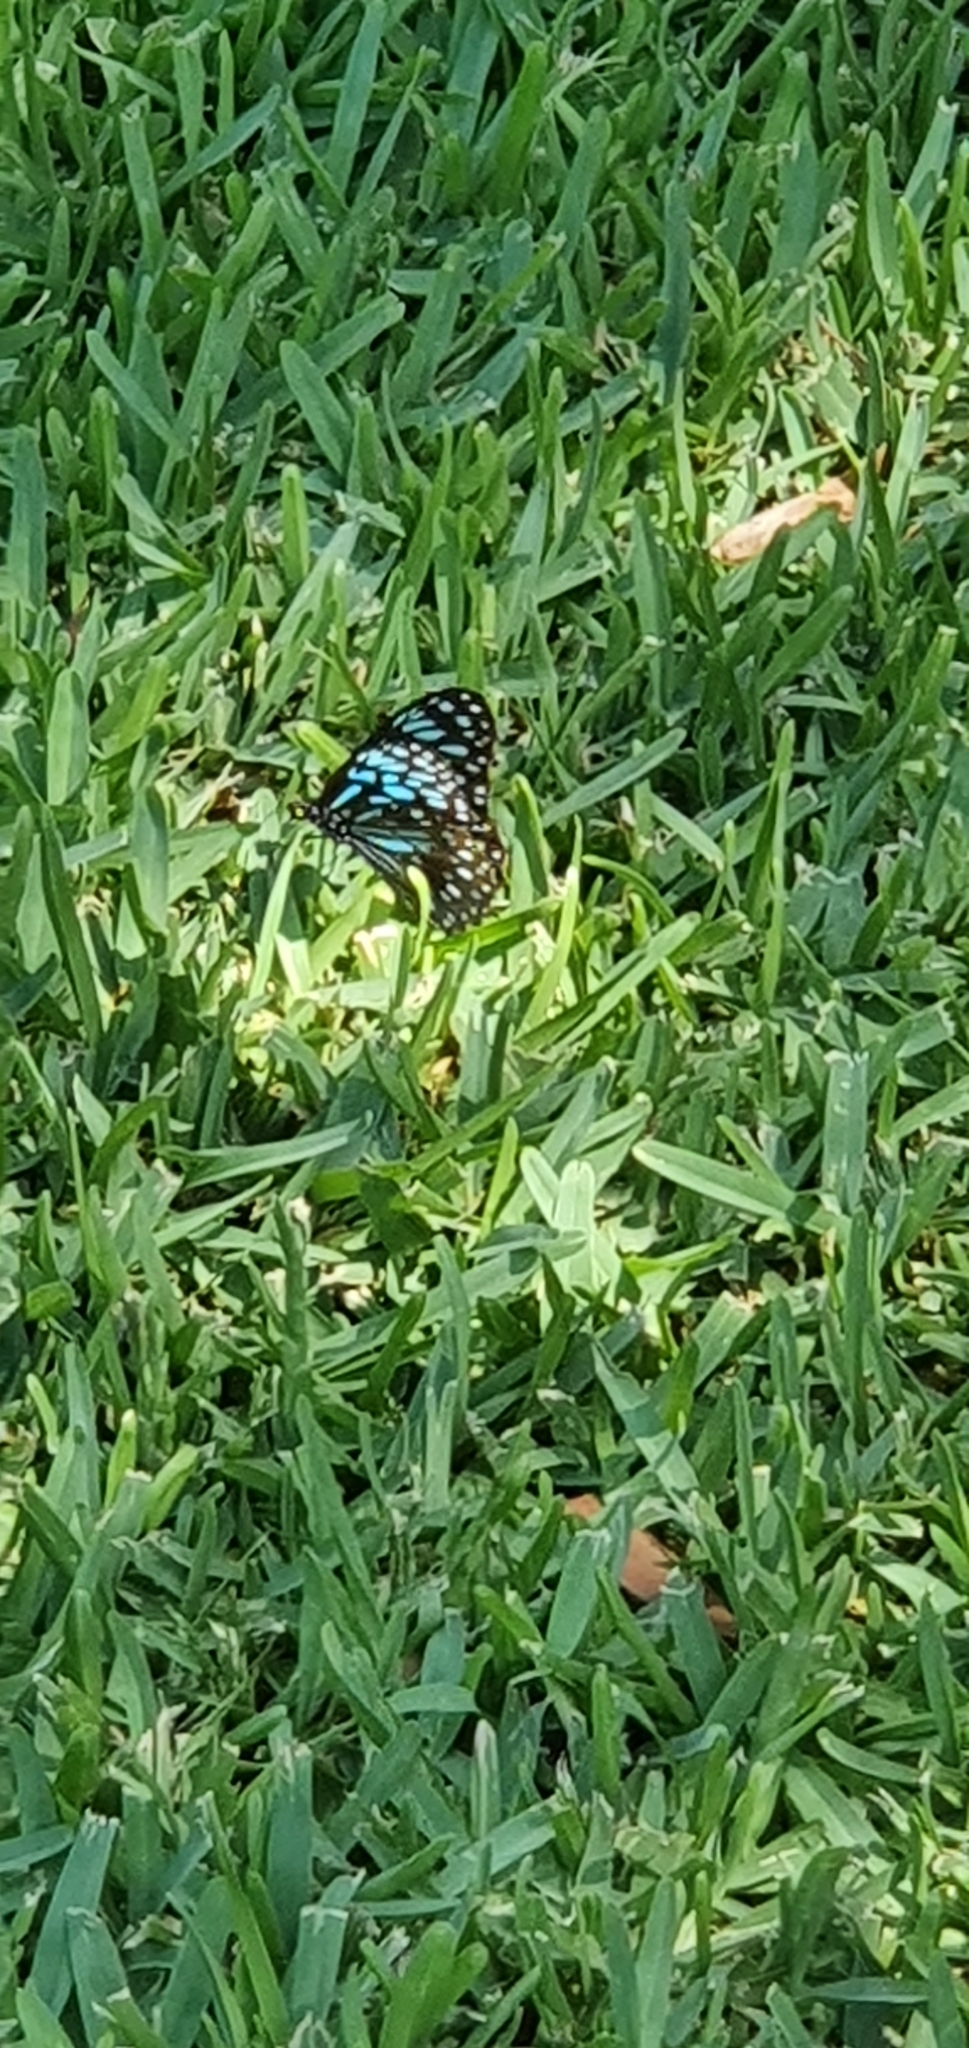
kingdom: Animalia
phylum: Arthropoda
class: Insecta
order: Lepidoptera
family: Nymphalidae
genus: Tirumala
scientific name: Tirumala hamata
